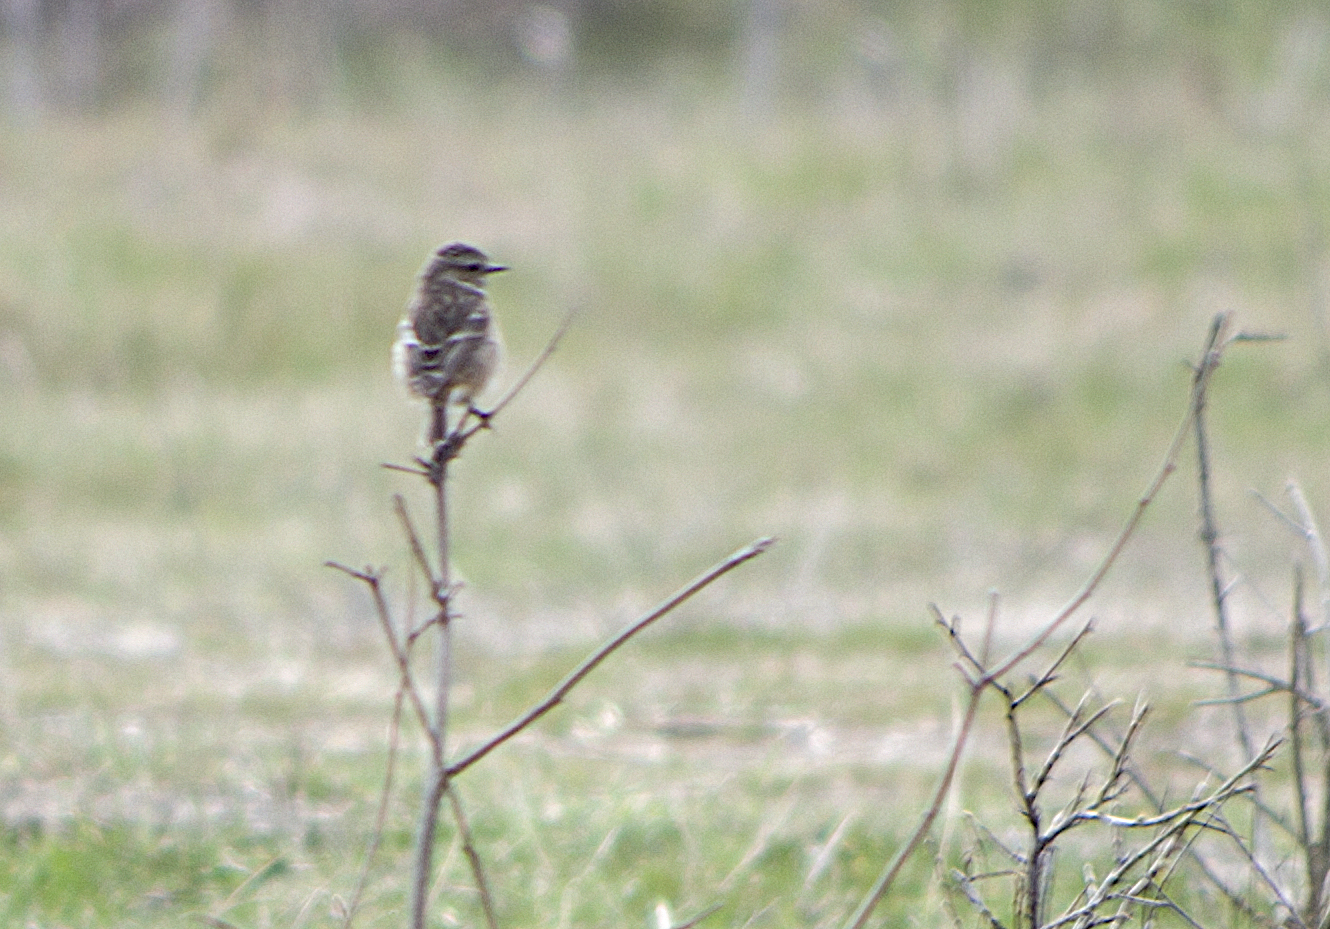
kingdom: Animalia
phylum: Chordata
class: Aves
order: Passeriformes
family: Muscicapidae
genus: Saxicola
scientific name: Saxicola rubicola
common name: European stonechat
